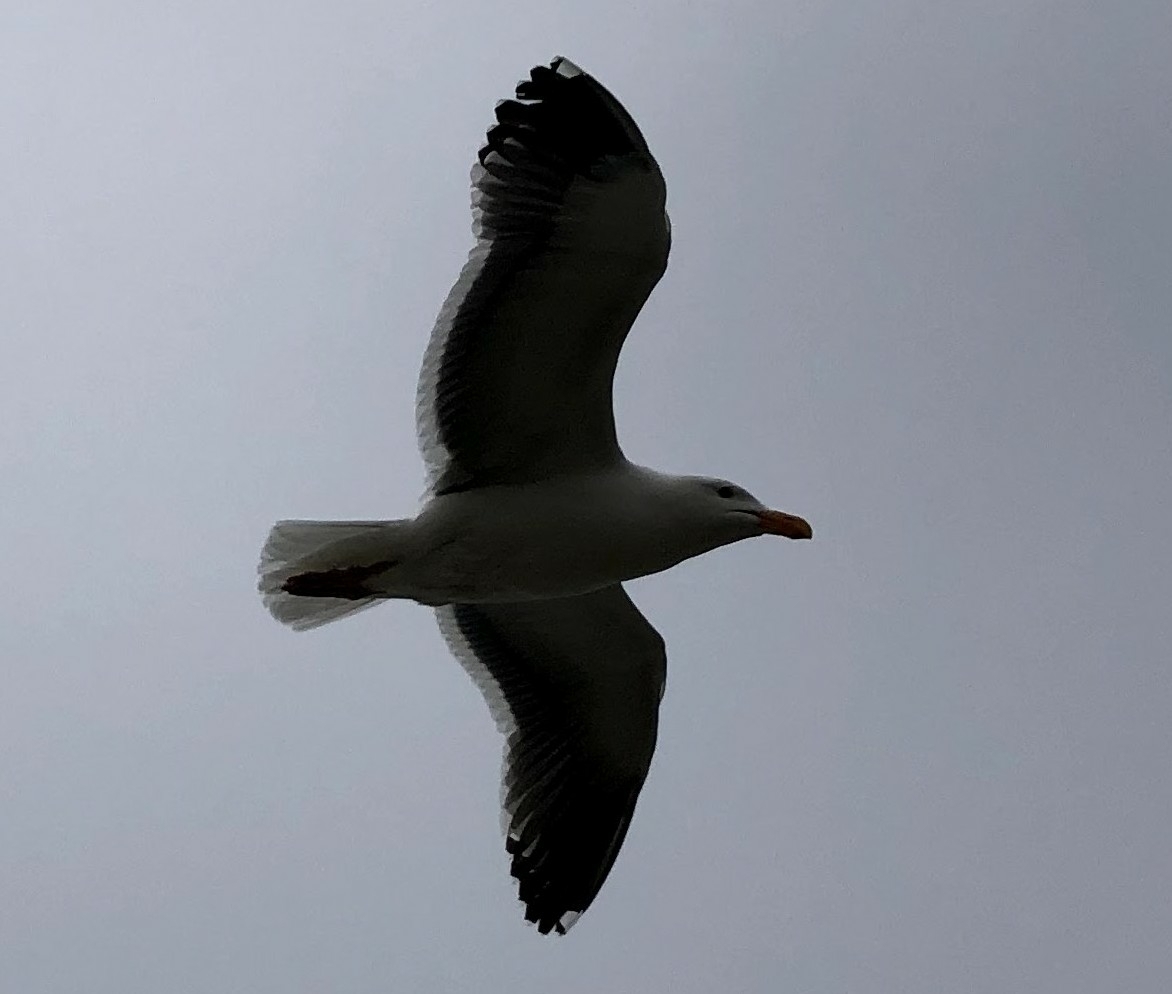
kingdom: Animalia
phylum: Chordata
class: Aves
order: Charadriiformes
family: Laridae
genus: Larus
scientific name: Larus occidentalis
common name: Western gull
